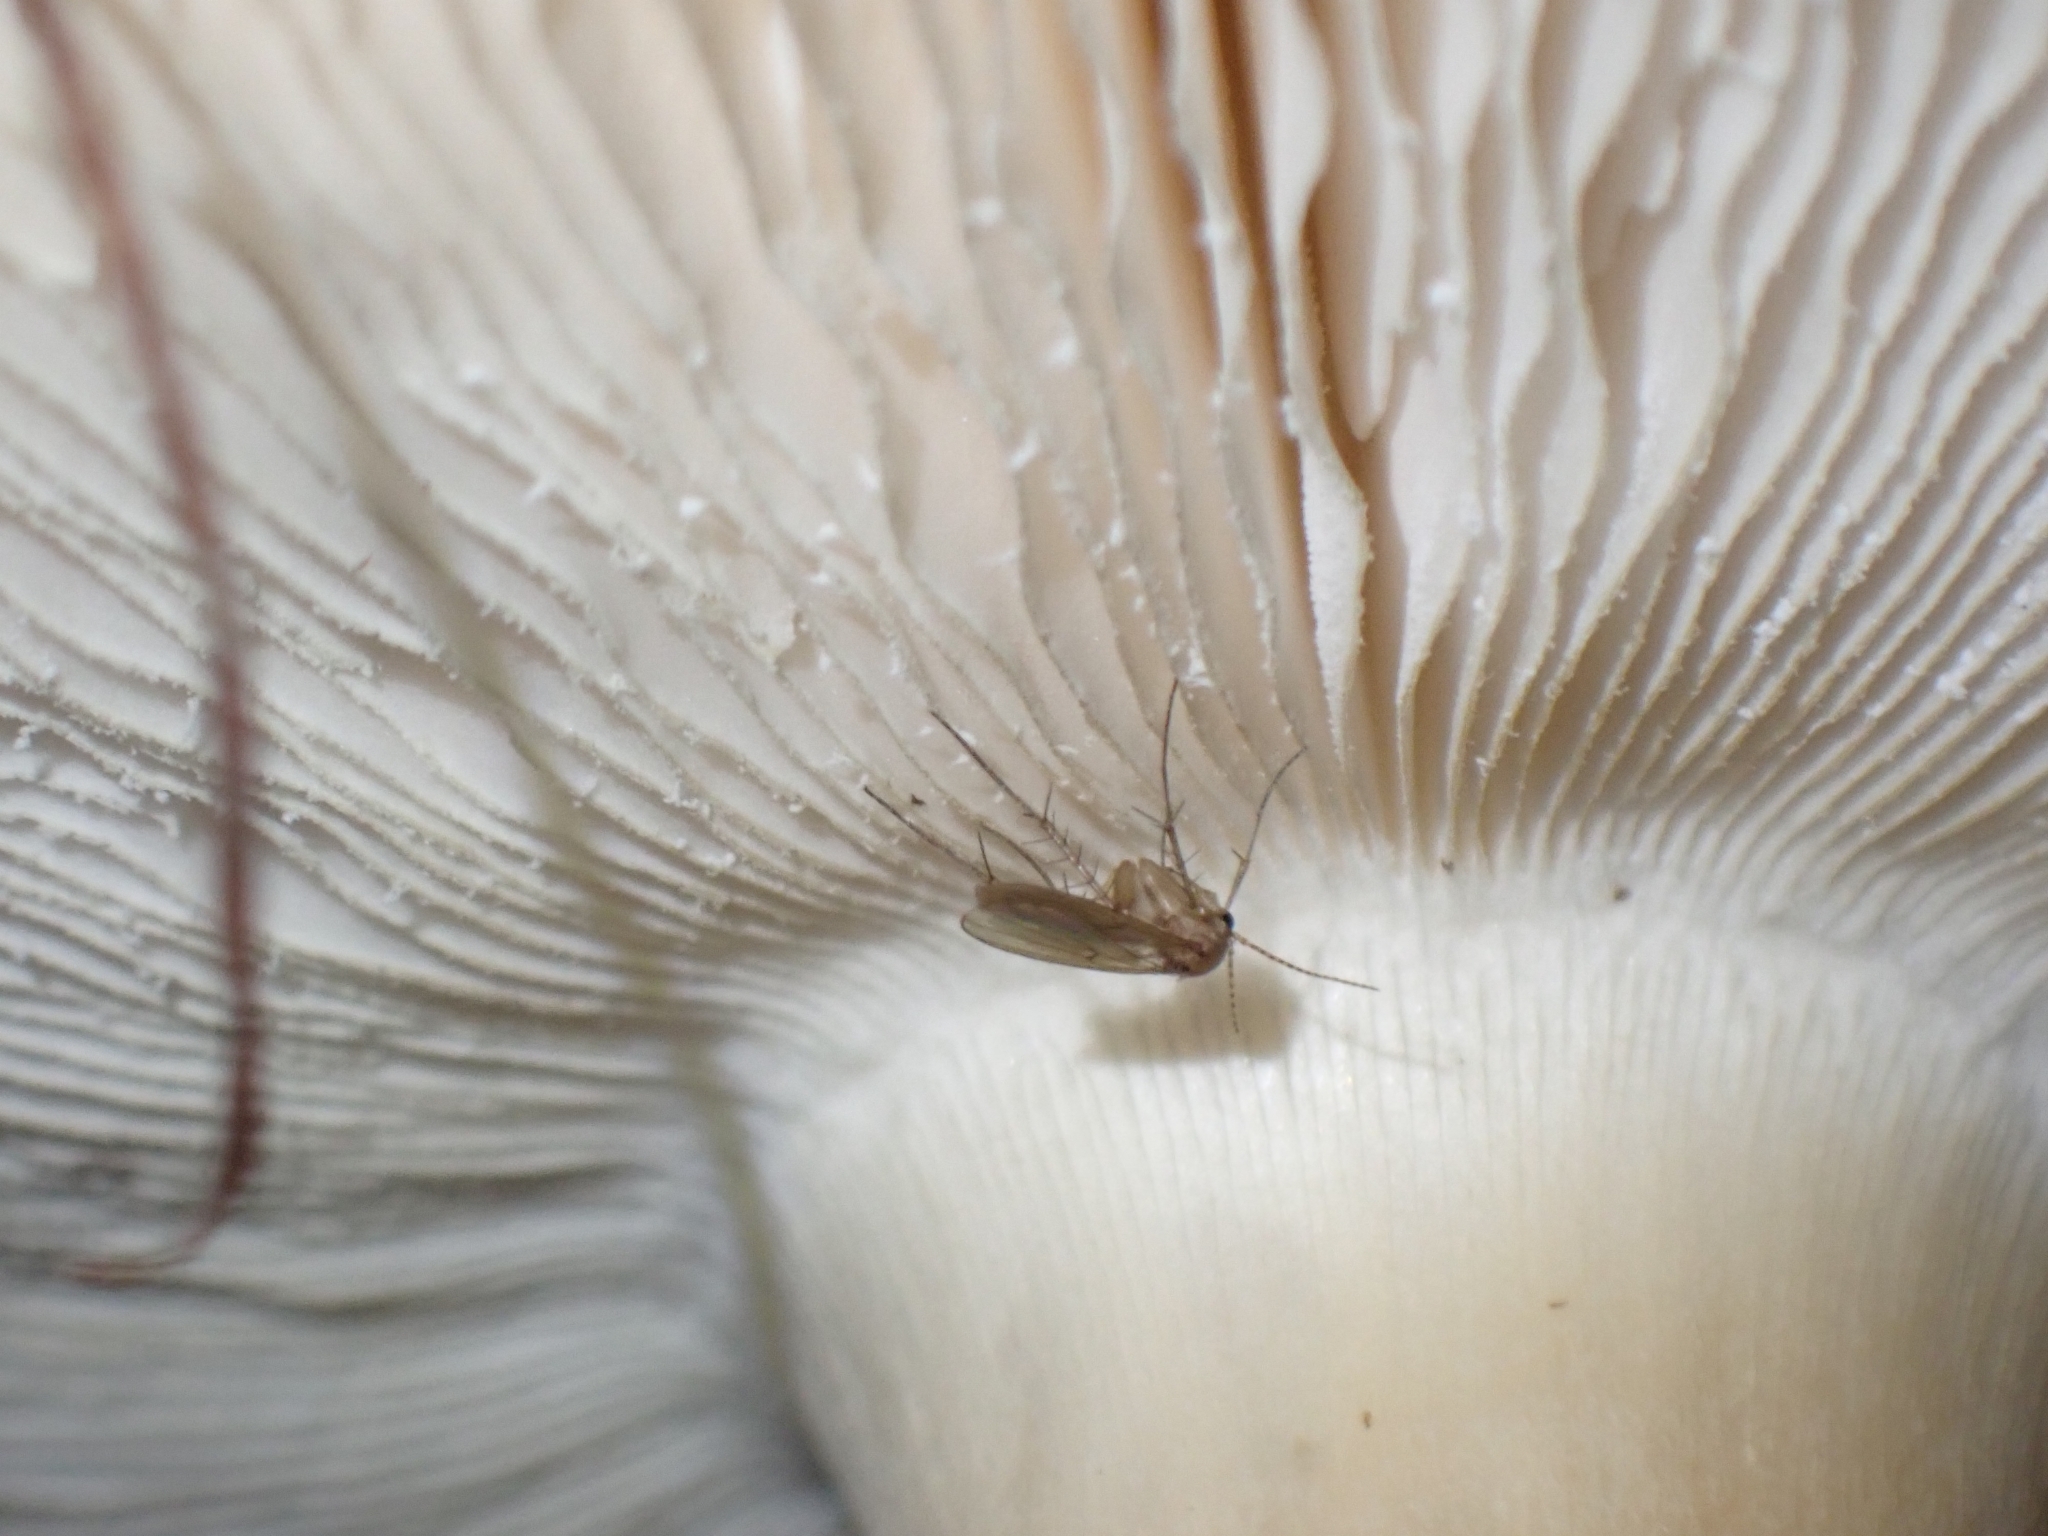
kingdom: Animalia
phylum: Arthropoda
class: Insecta
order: Diptera
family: Mycetophilidae
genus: Mycetophila
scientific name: Mycetophila fagi
